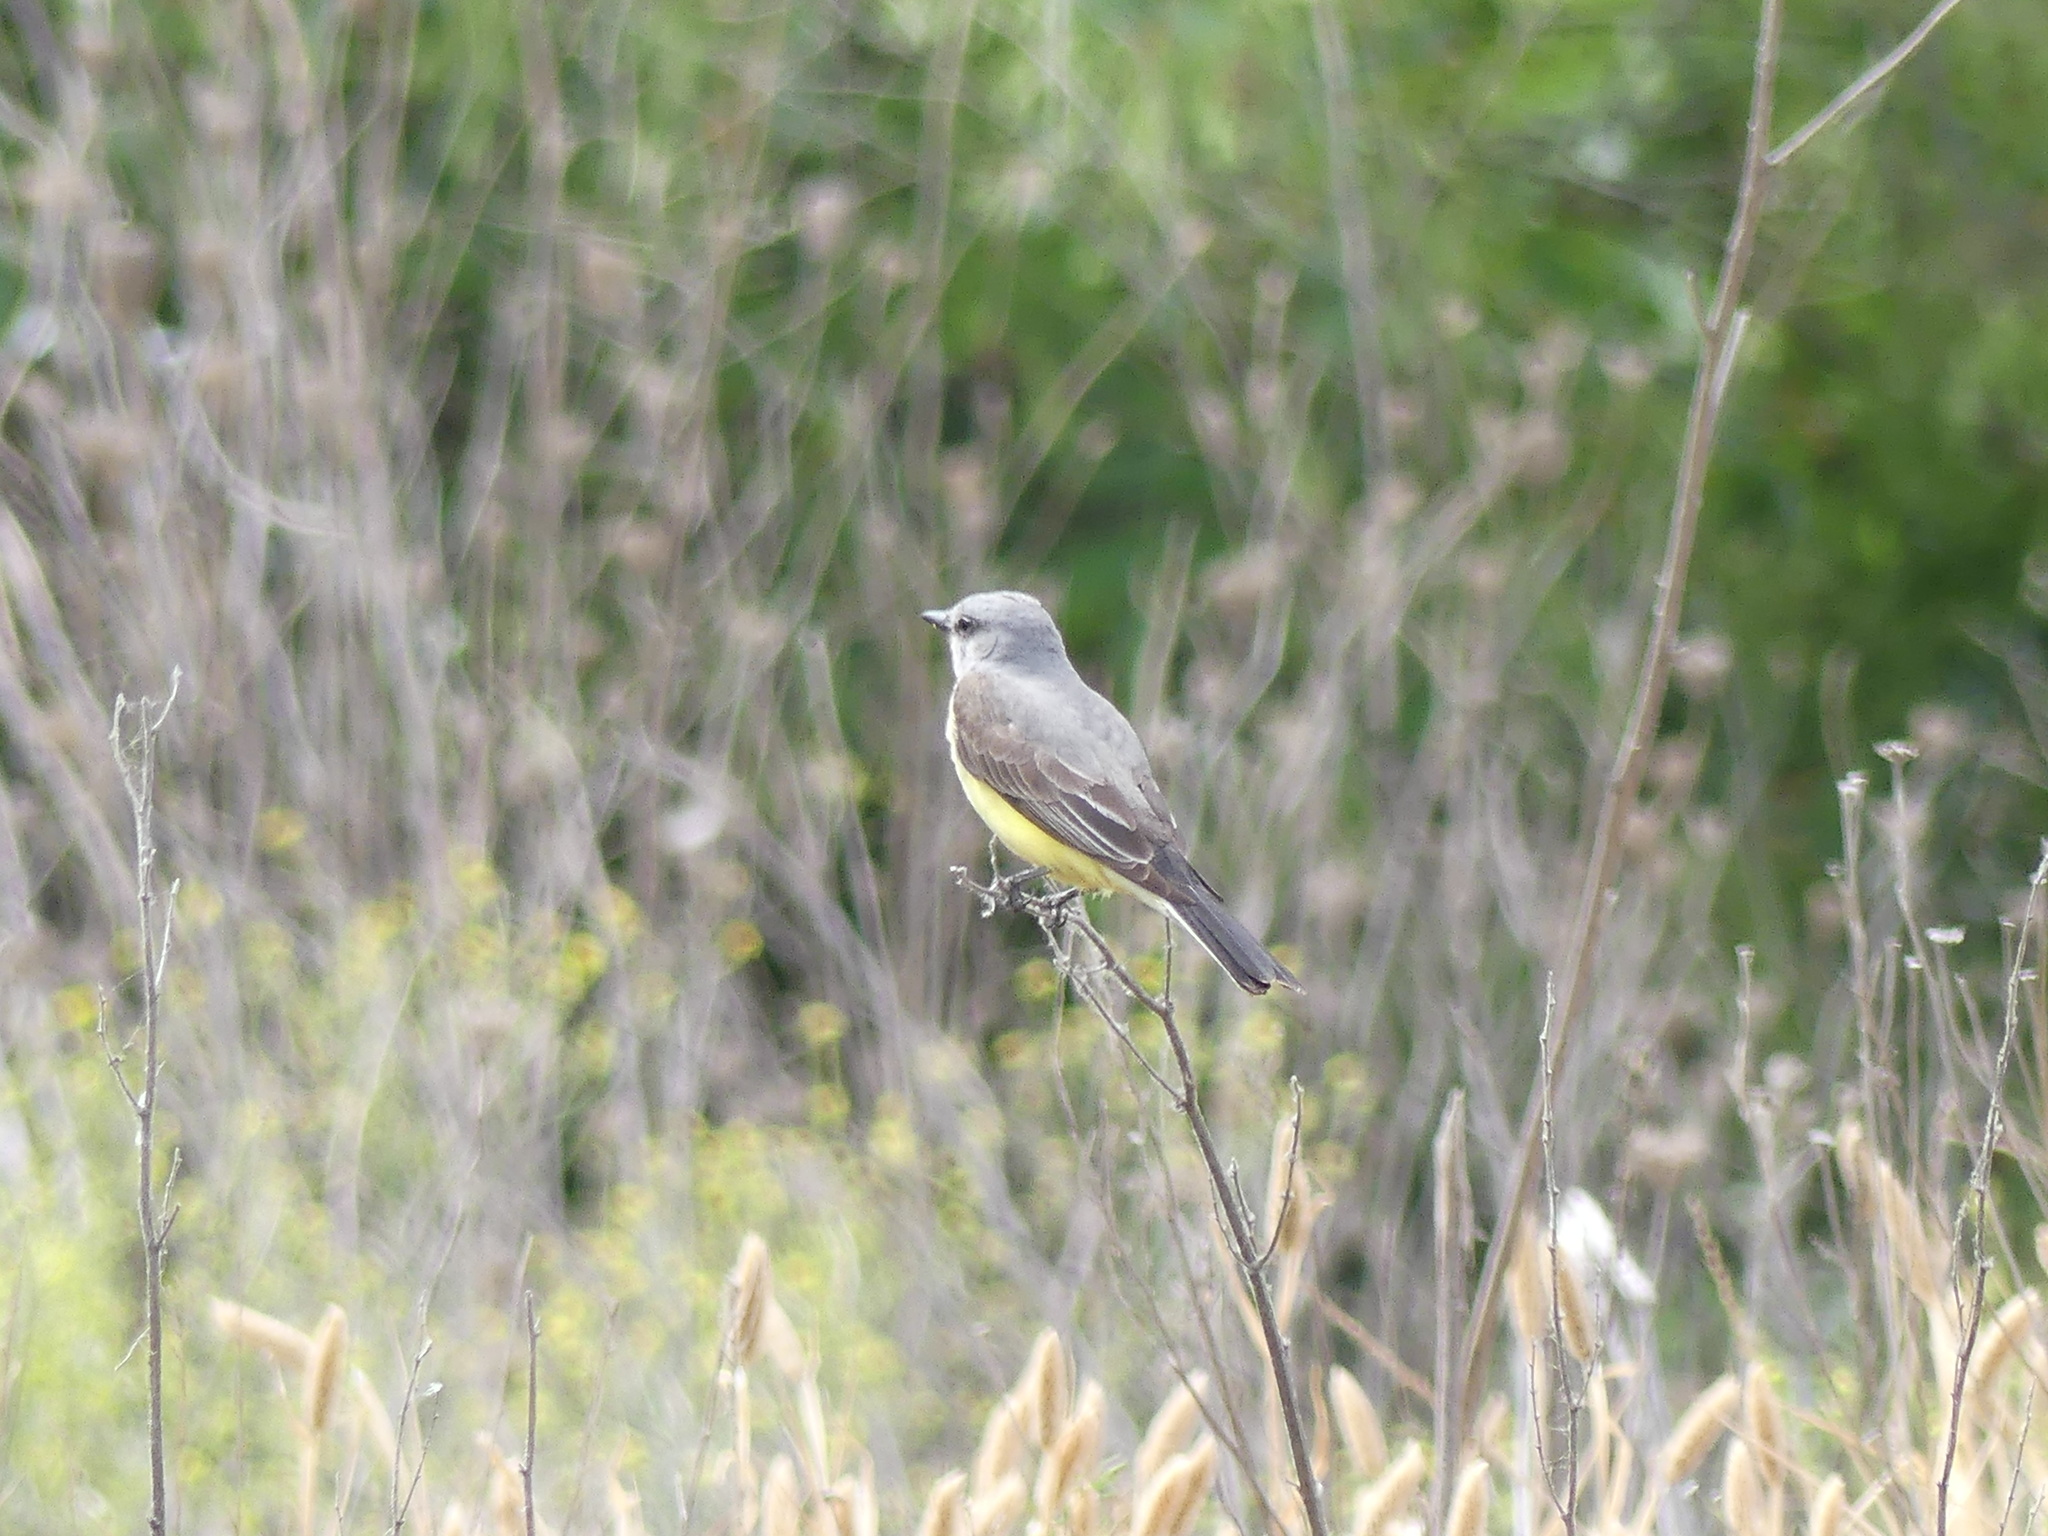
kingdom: Animalia
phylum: Chordata
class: Aves
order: Passeriformes
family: Tyrannidae
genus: Tyrannus
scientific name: Tyrannus verticalis
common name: Western kingbird
